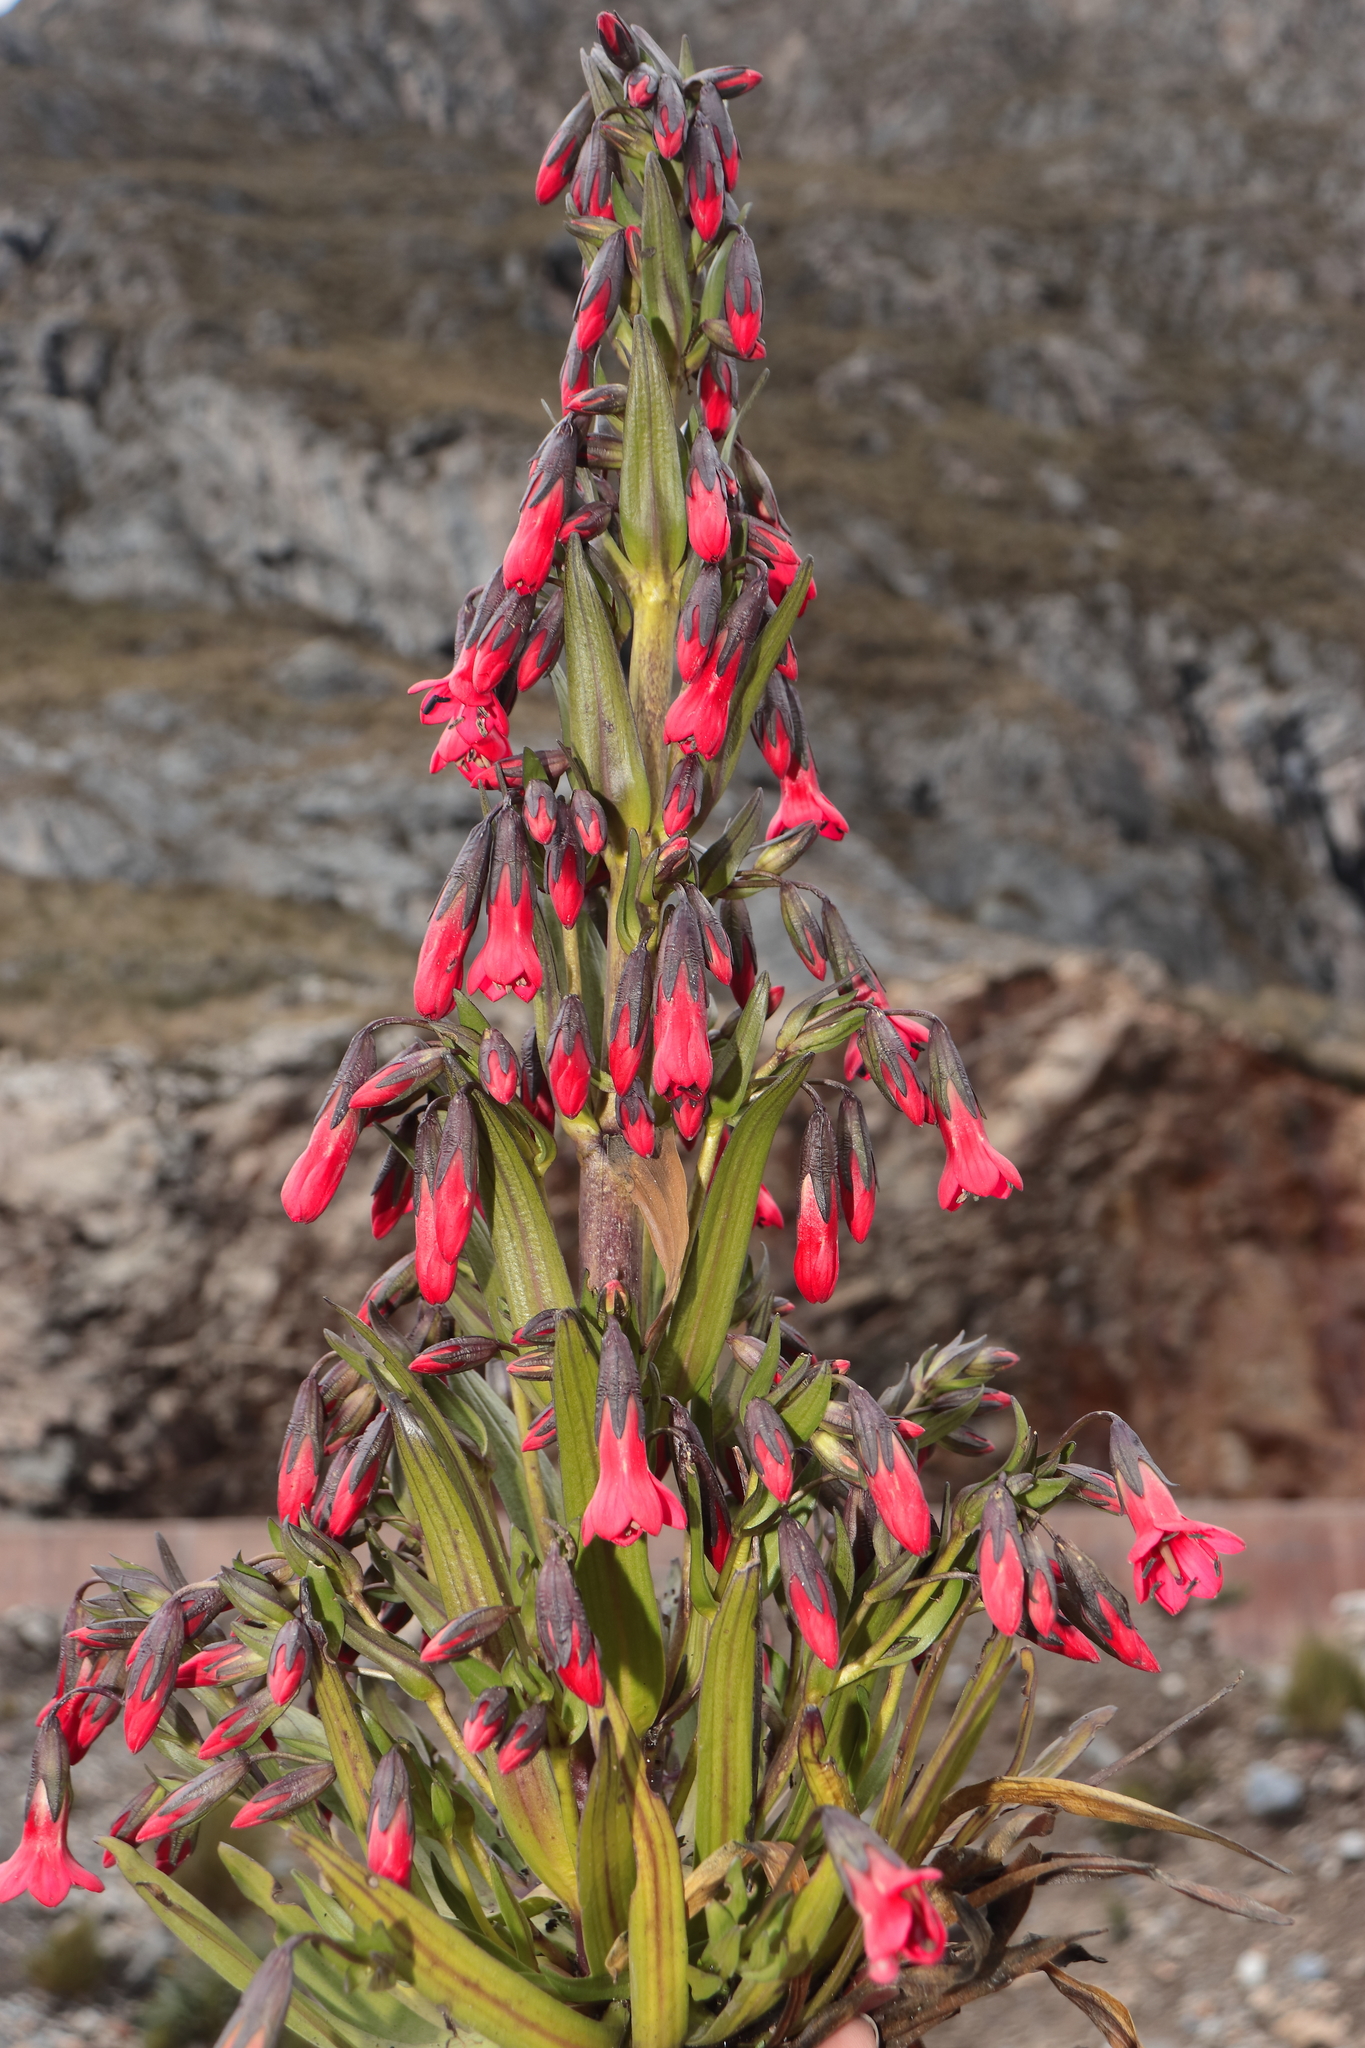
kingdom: Plantae
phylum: Tracheophyta
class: Magnoliopsida
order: Gentianales
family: Gentianaceae
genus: Gentianella
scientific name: Gentianella weberbaueri
